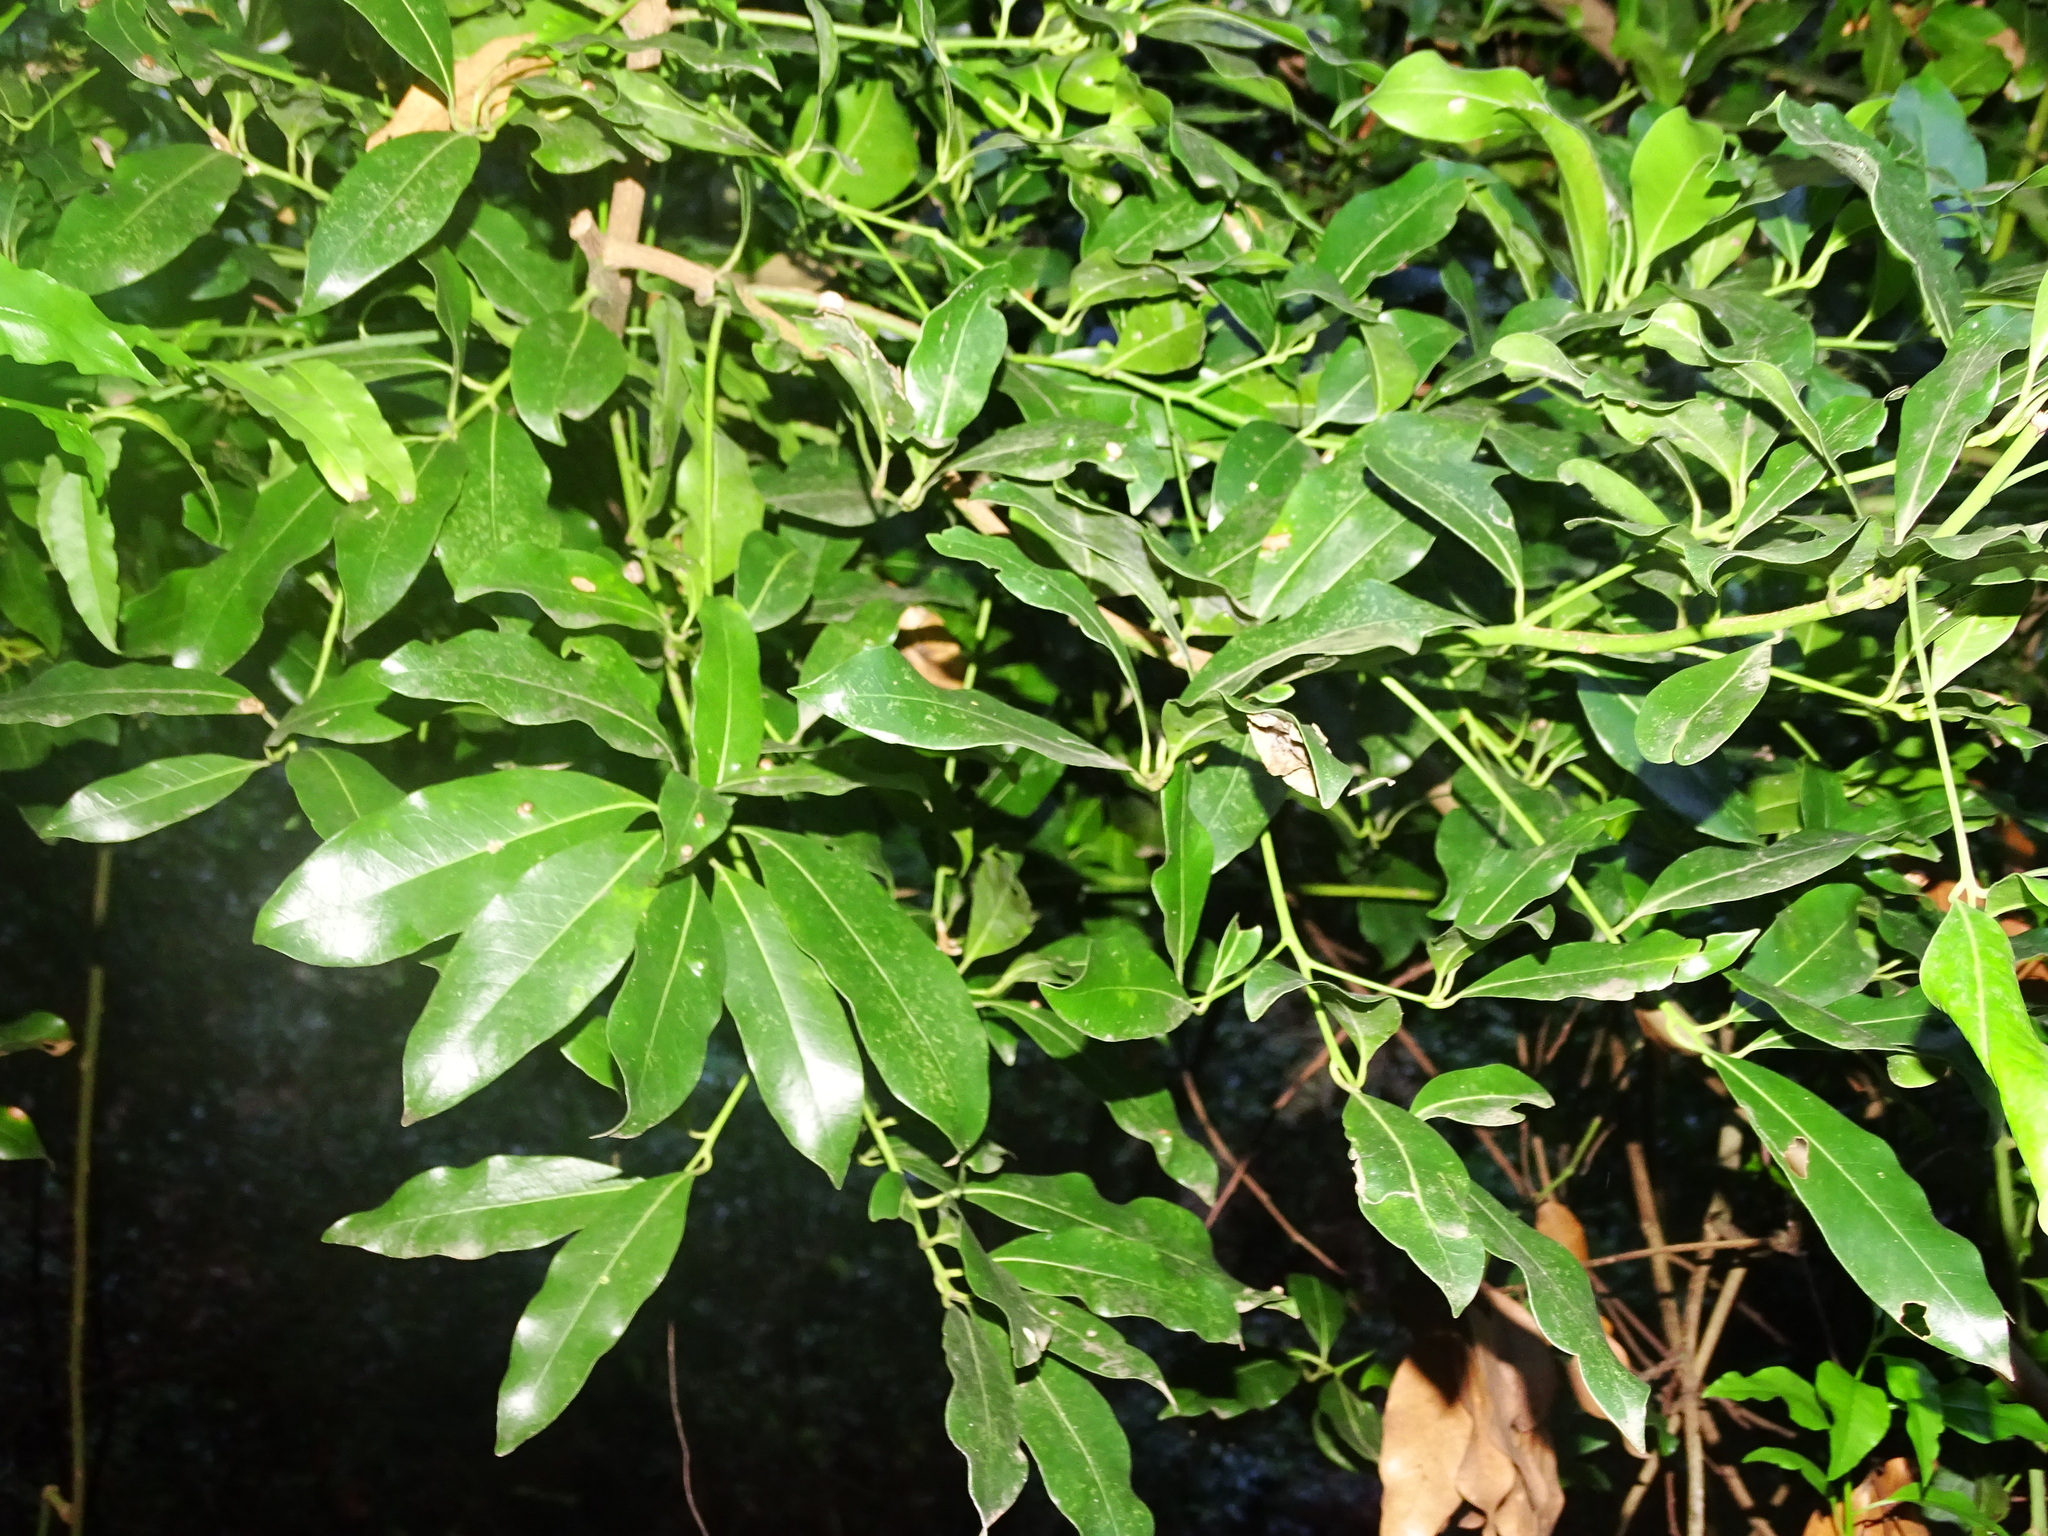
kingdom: Plantae
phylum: Tracheophyta
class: Magnoliopsida
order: Laurales
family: Lauraceae
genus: Apollonias
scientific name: Apollonias barbujana
